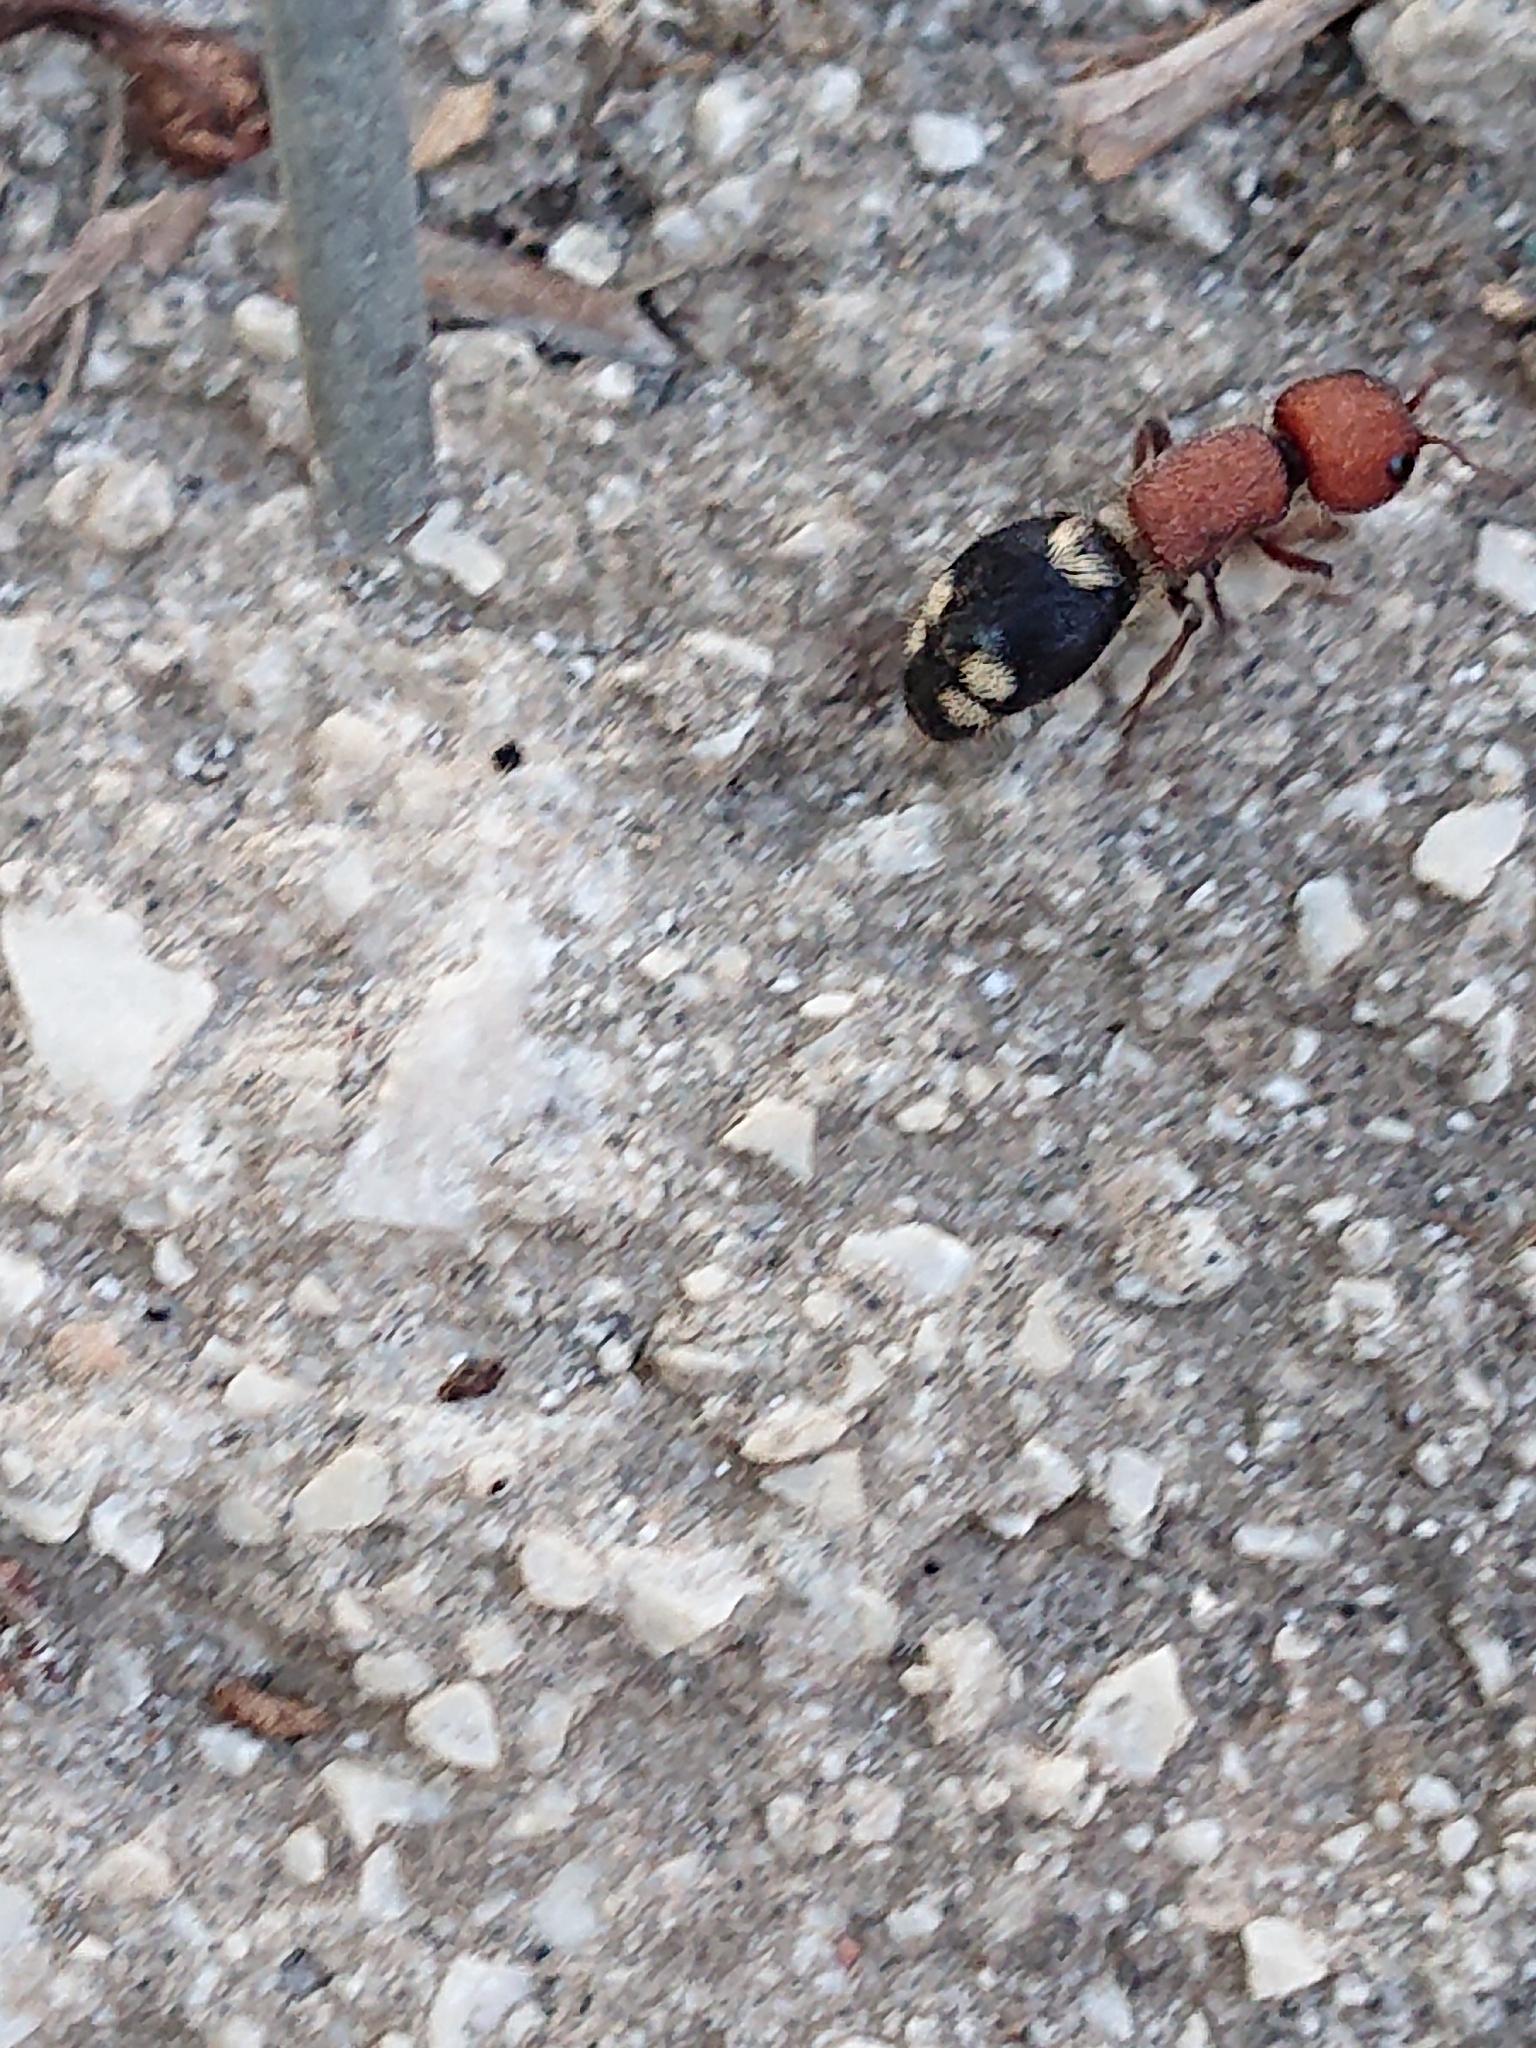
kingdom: Animalia
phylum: Arthropoda
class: Insecta
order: Hymenoptera
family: Mutillidae
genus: Mutilla
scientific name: Mutilla quinquemaculata
